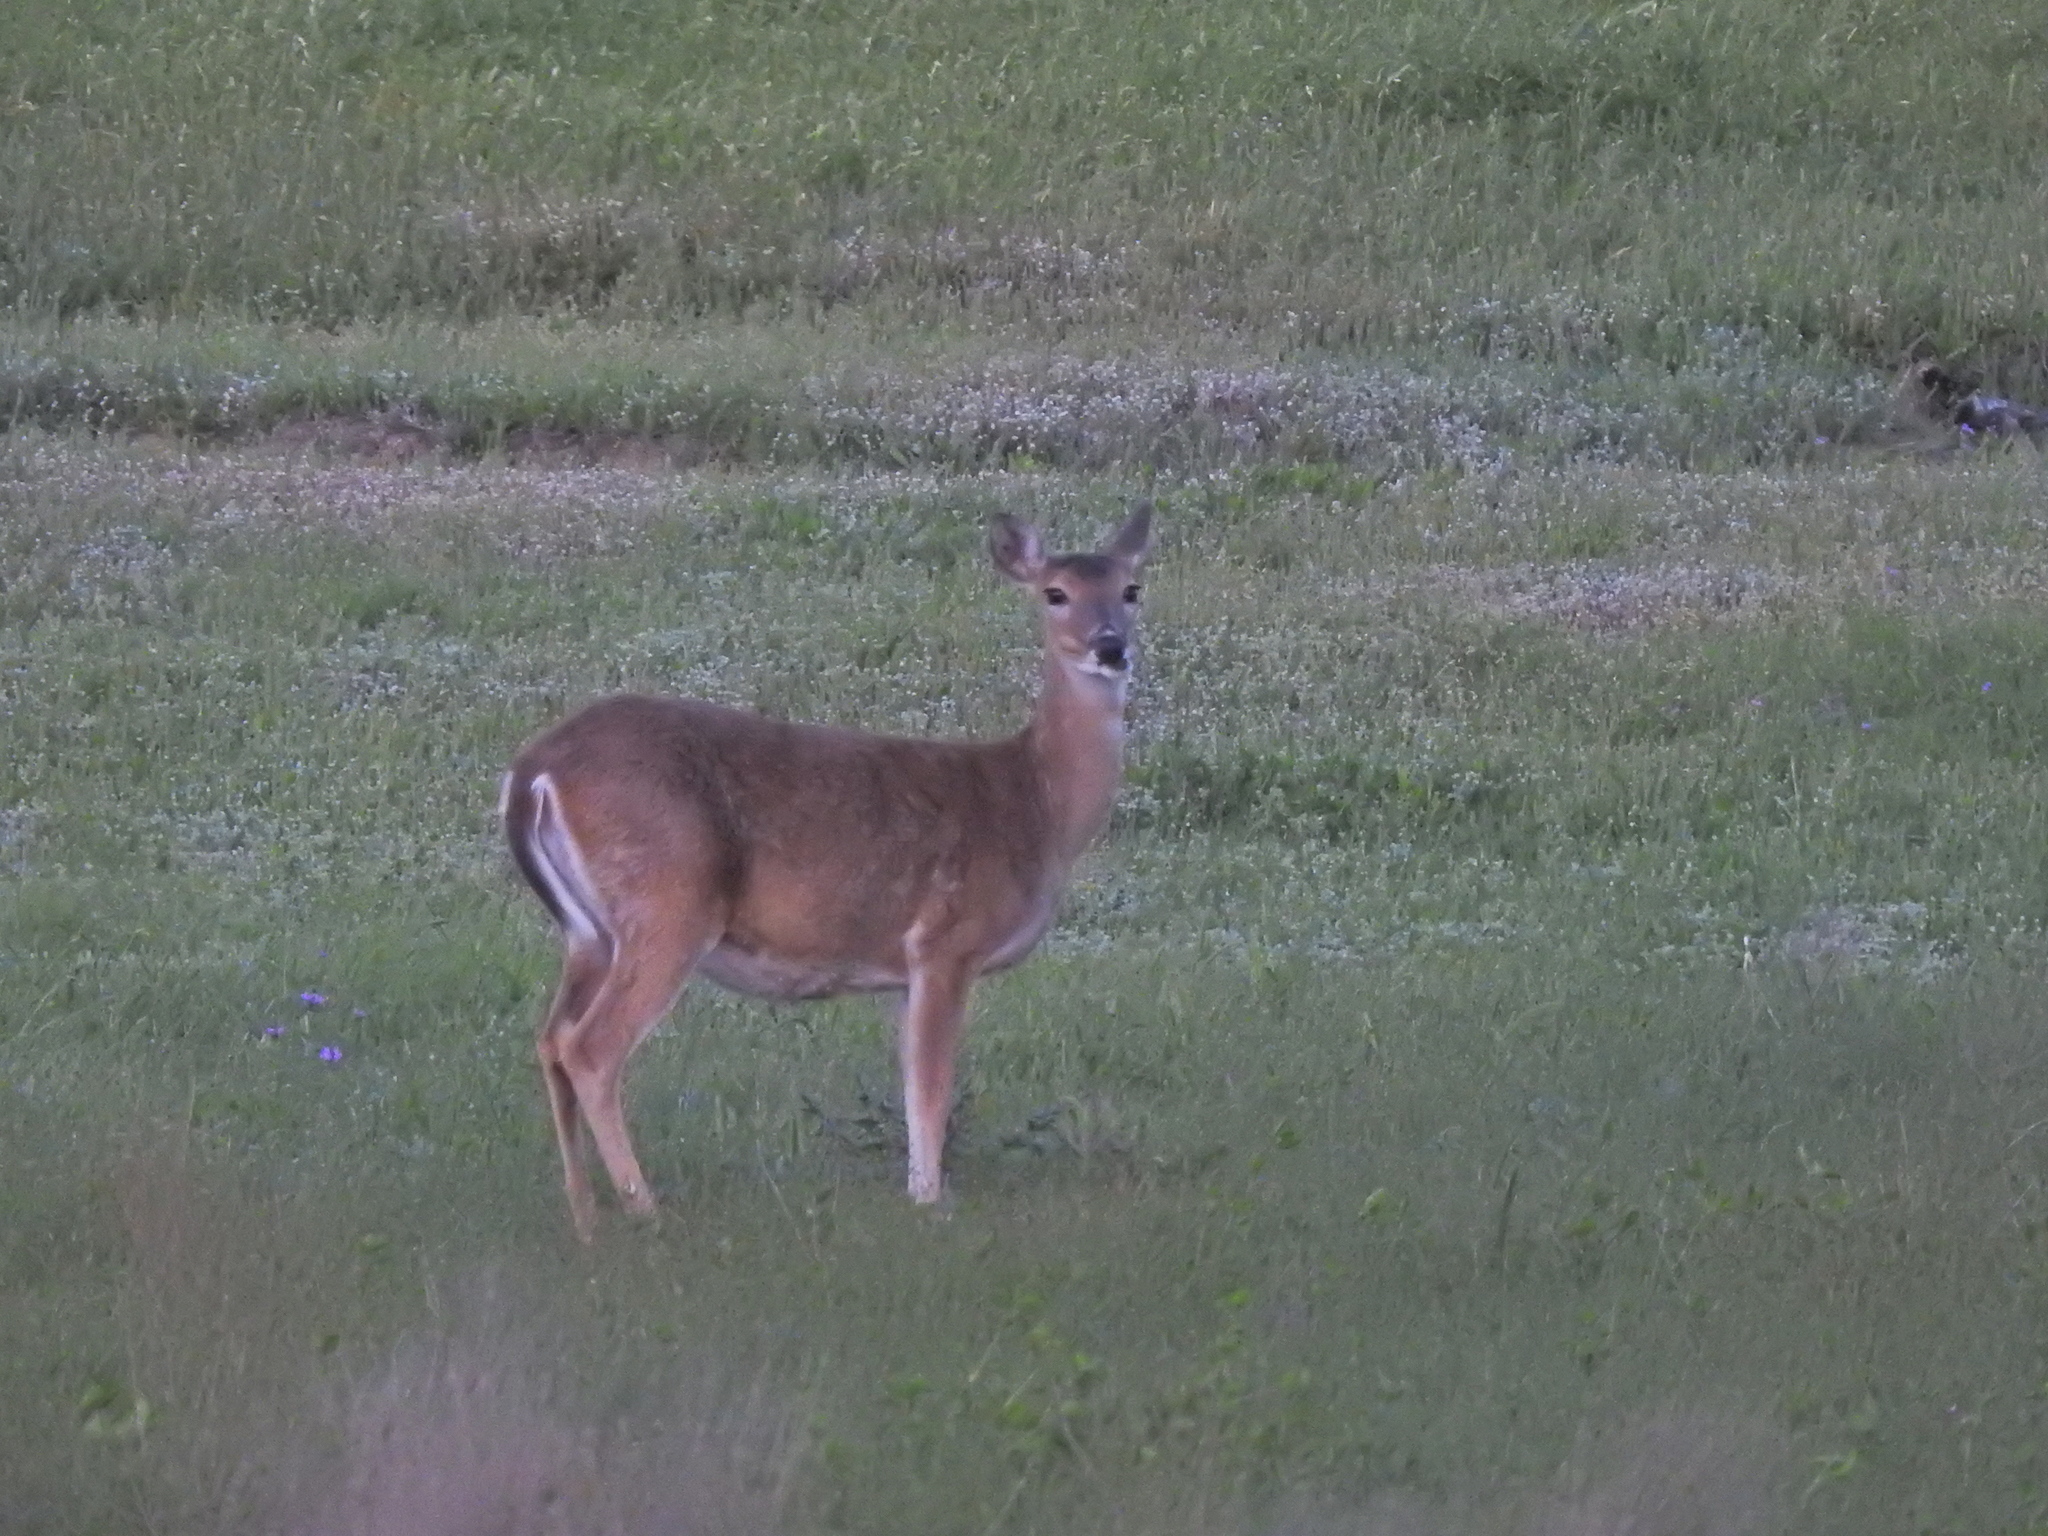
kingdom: Animalia
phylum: Chordata
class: Mammalia
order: Artiodactyla
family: Cervidae
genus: Odocoileus
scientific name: Odocoileus virginianus
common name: White-tailed deer
